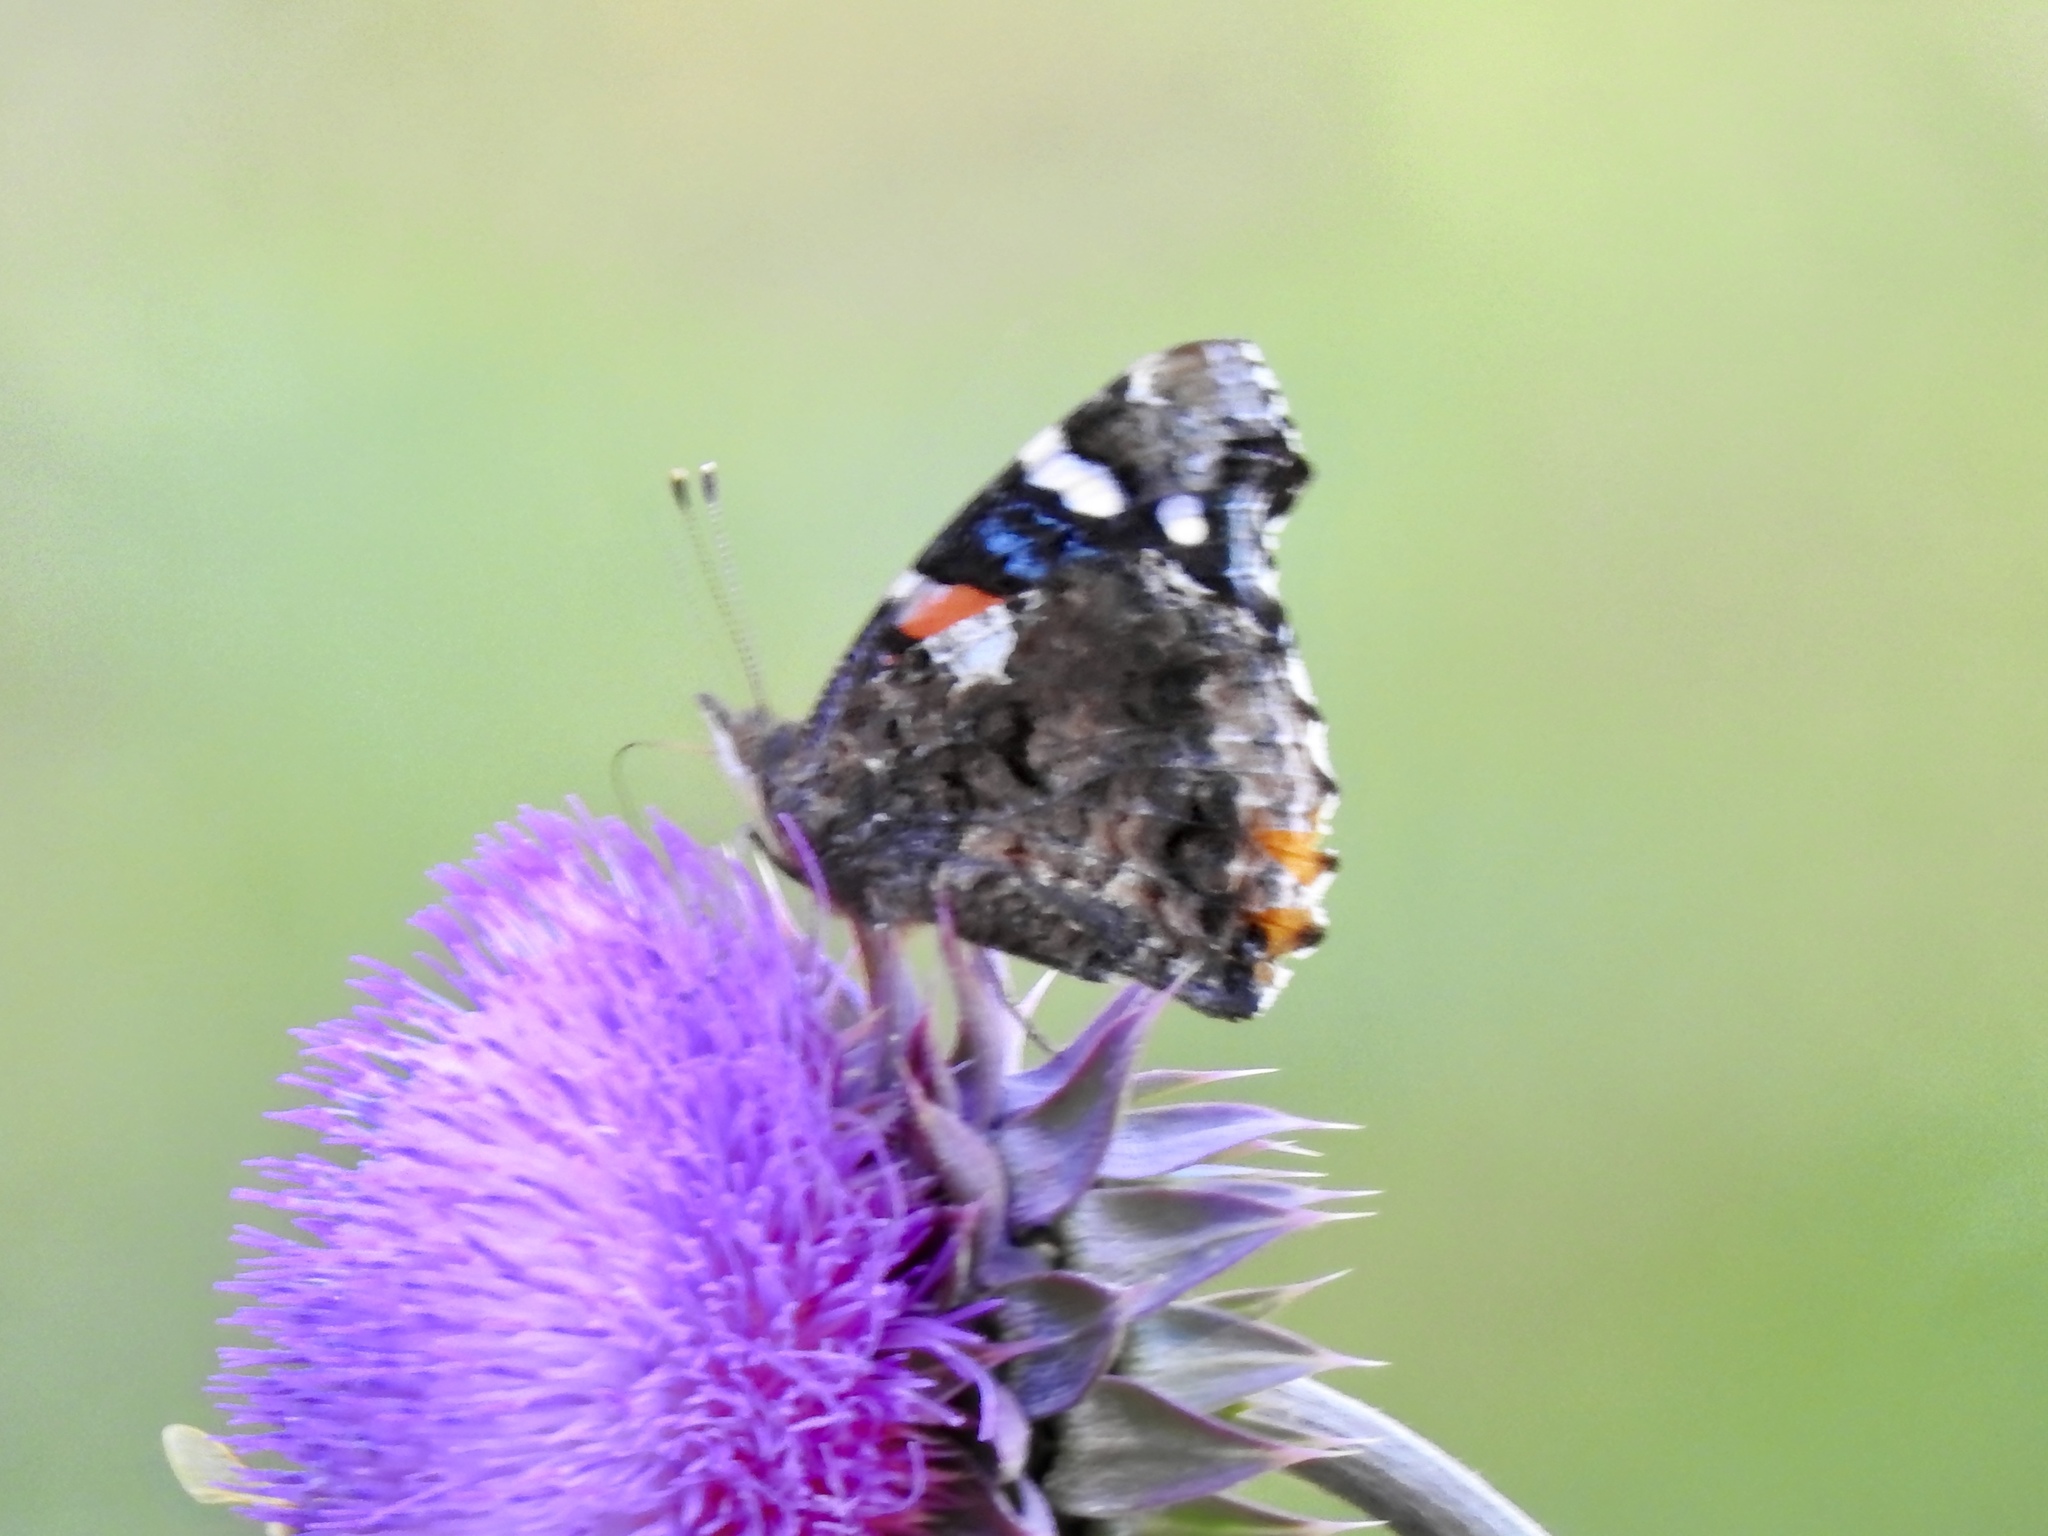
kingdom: Animalia
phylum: Arthropoda
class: Insecta
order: Lepidoptera
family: Nymphalidae
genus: Vanessa
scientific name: Vanessa atalanta
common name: Red admiral
